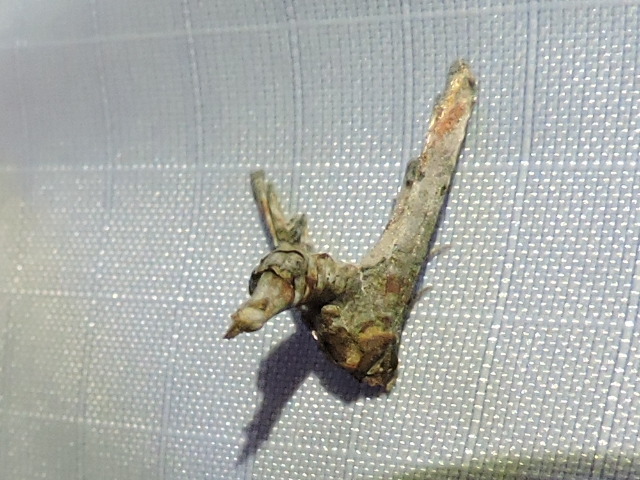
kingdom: Animalia
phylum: Arthropoda
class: Insecta
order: Lepidoptera
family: Euteliidae
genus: Marathyssa
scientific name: Marathyssa inficita
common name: Dark marathyssa moth
